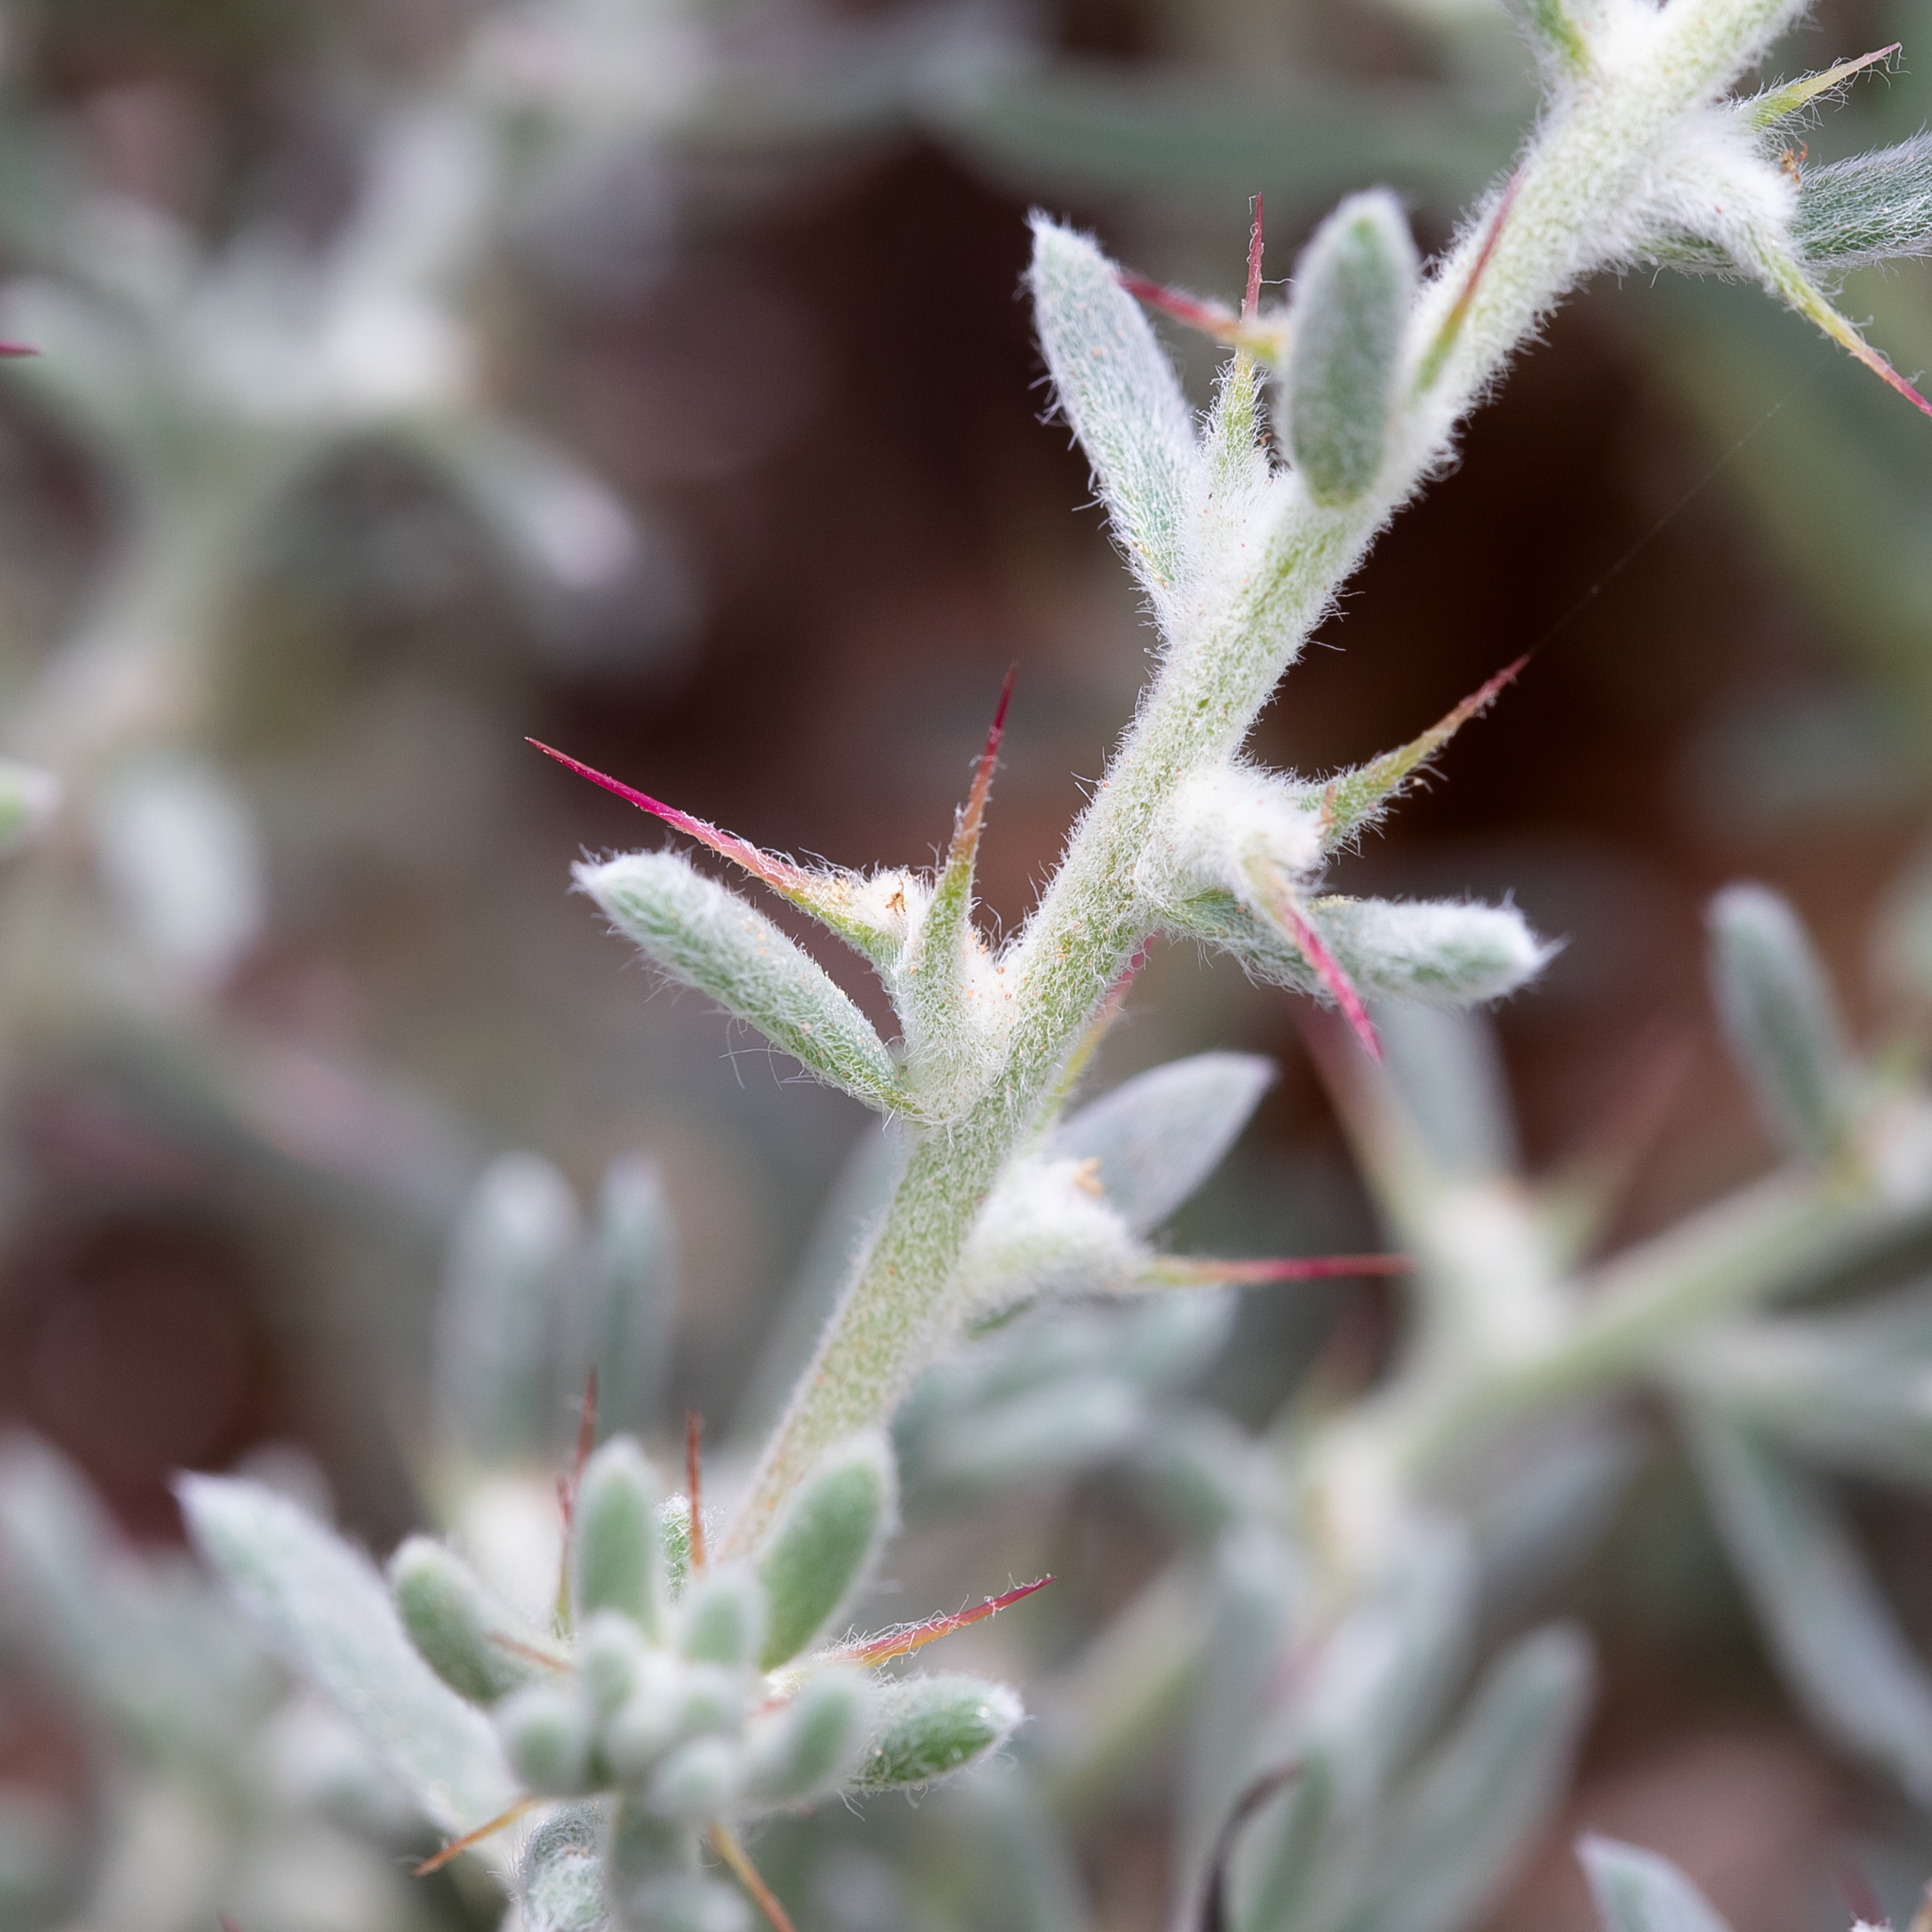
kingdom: Plantae
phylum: Tracheophyta
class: Magnoliopsida
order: Caryophyllales
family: Amaranthaceae
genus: Sclerolaena
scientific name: Sclerolaena obliquicuspis
